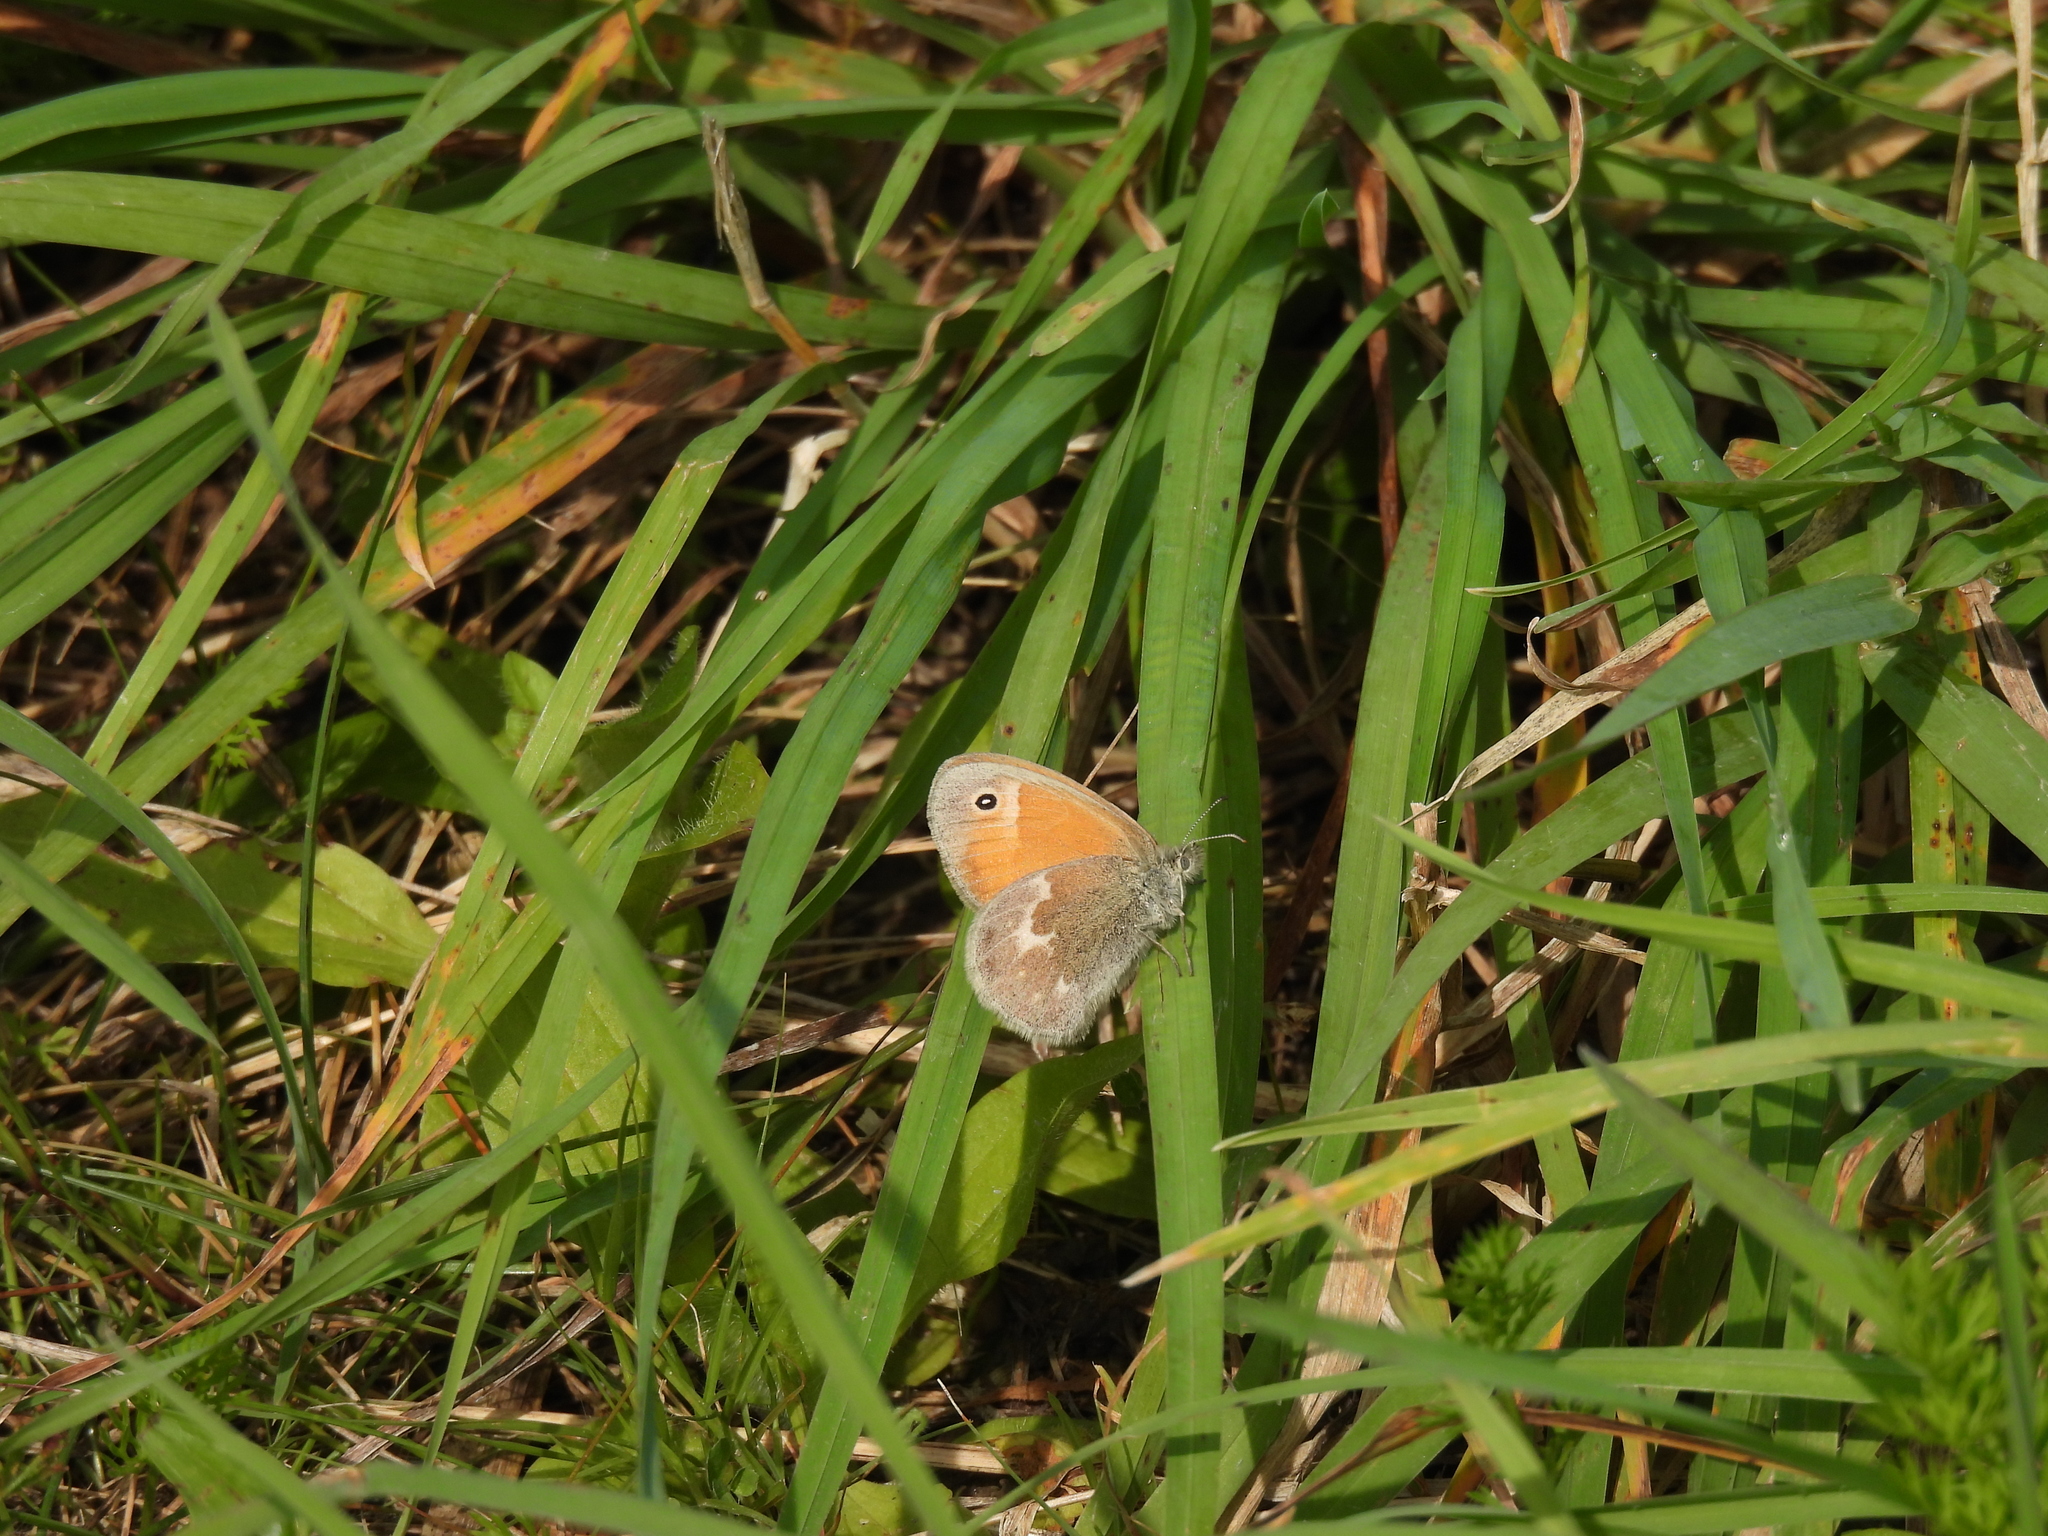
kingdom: Animalia
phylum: Arthropoda
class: Insecta
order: Lepidoptera
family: Nymphalidae
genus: Coenonympha
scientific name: Coenonympha california
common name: Common ringlet
